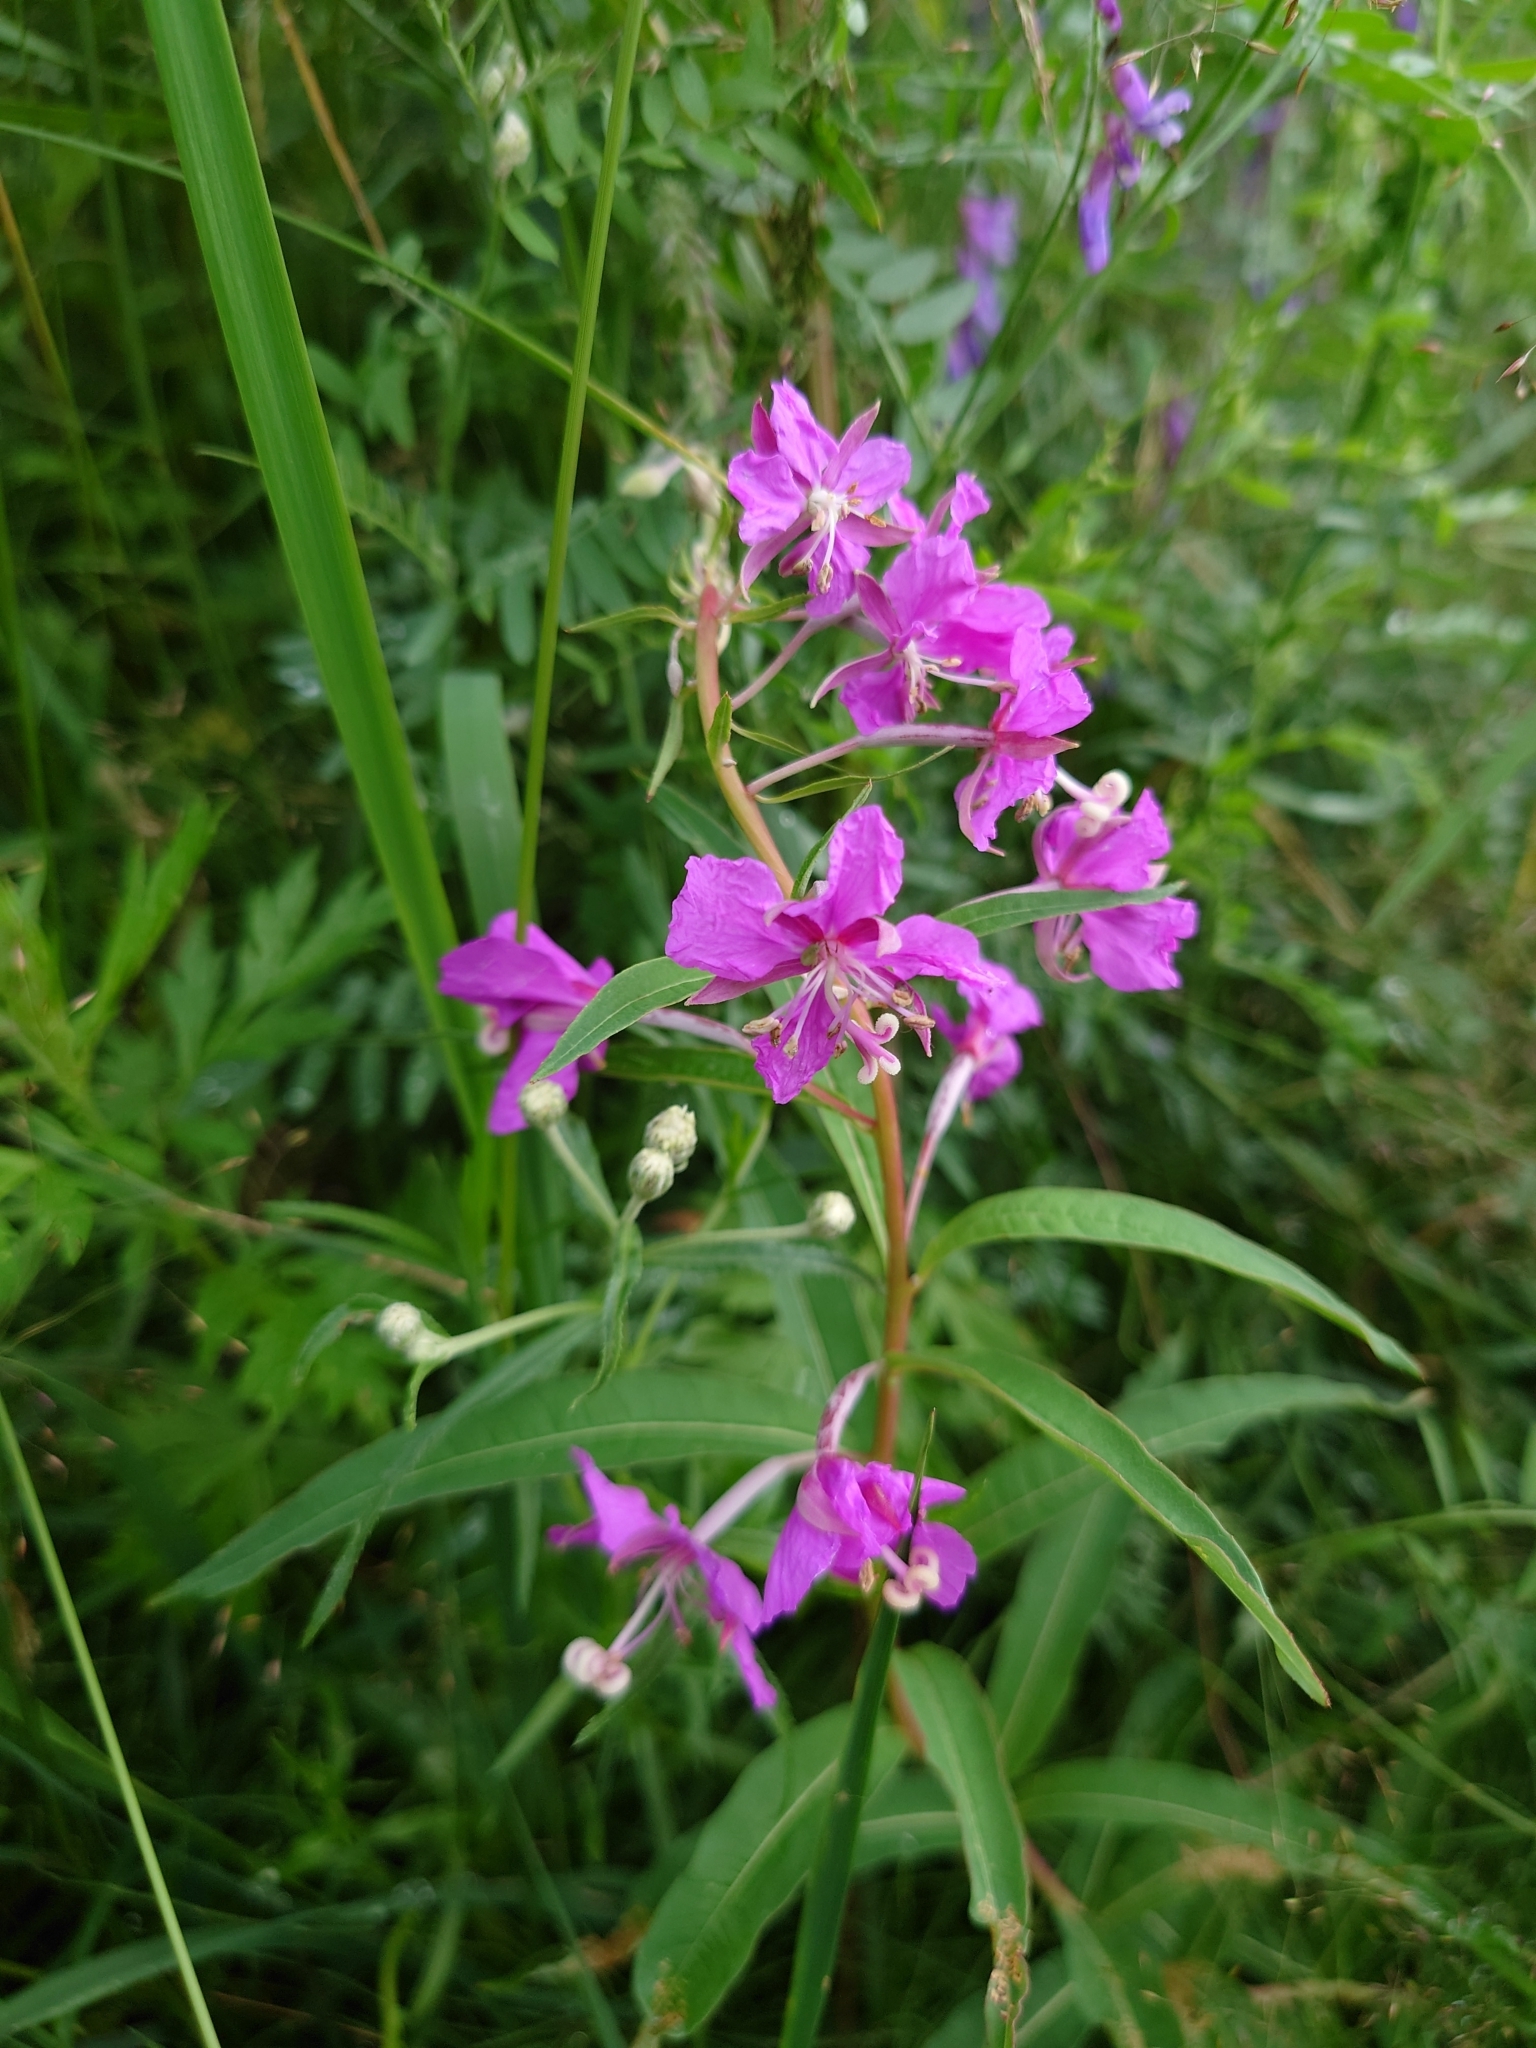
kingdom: Plantae
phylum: Tracheophyta
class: Magnoliopsida
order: Myrtales
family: Onagraceae
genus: Chamaenerion
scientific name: Chamaenerion angustifolium
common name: Fireweed
